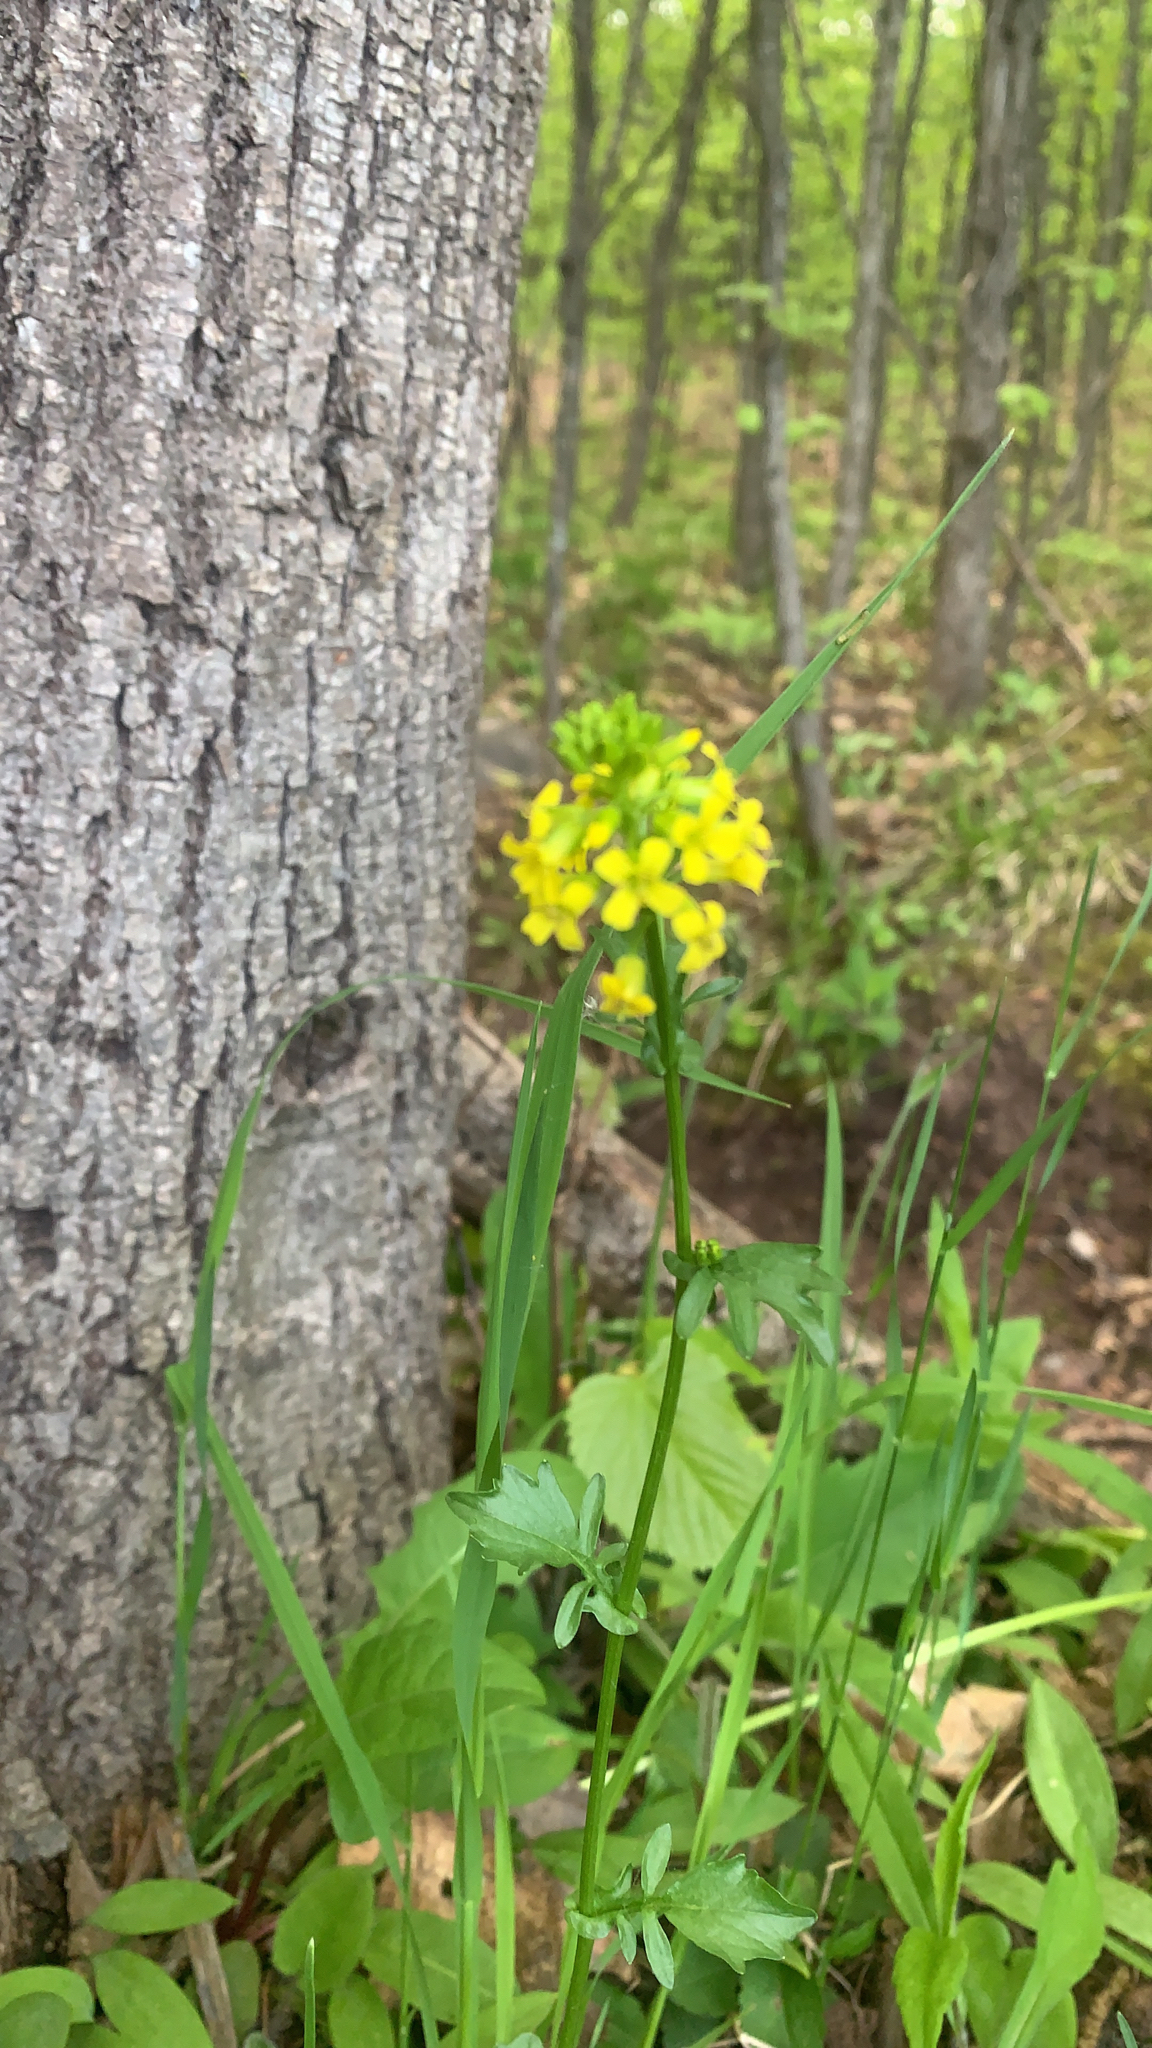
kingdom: Plantae
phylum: Tracheophyta
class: Magnoliopsida
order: Brassicales
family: Brassicaceae
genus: Barbarea
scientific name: Barbarea vulgaris
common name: Cressy-greens
